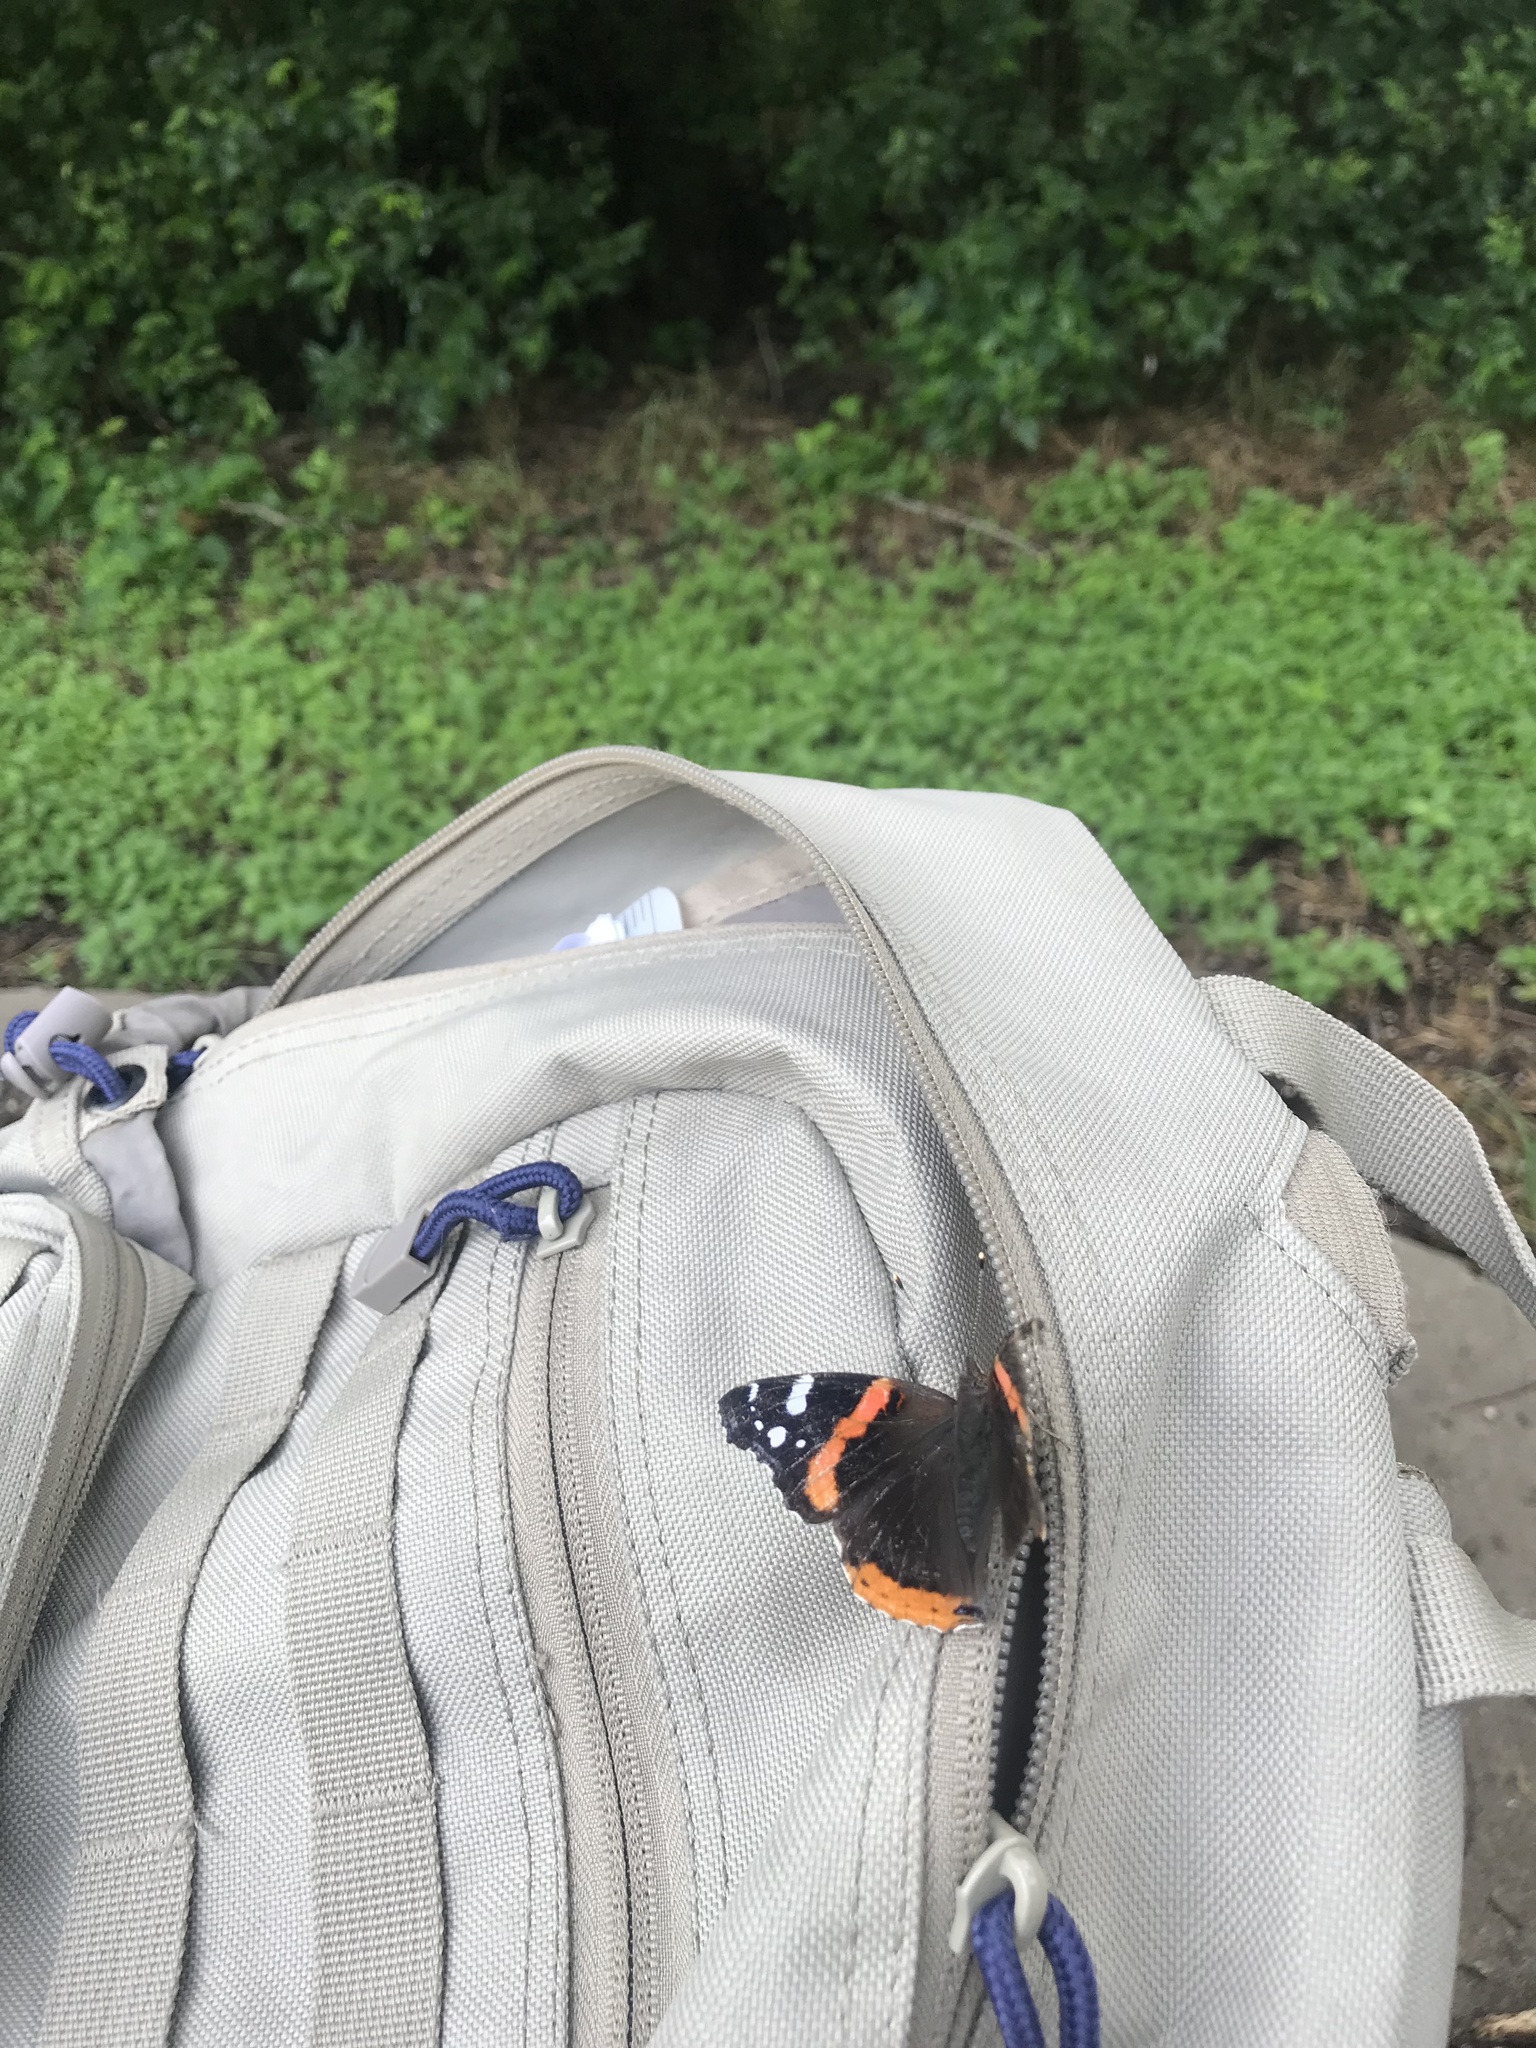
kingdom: Animalia
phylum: Arthropoda
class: Insecta
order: Lepidoptera
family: Nymphalidae
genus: Vanessa
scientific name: Vanessa atalanta
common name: Red admiral
